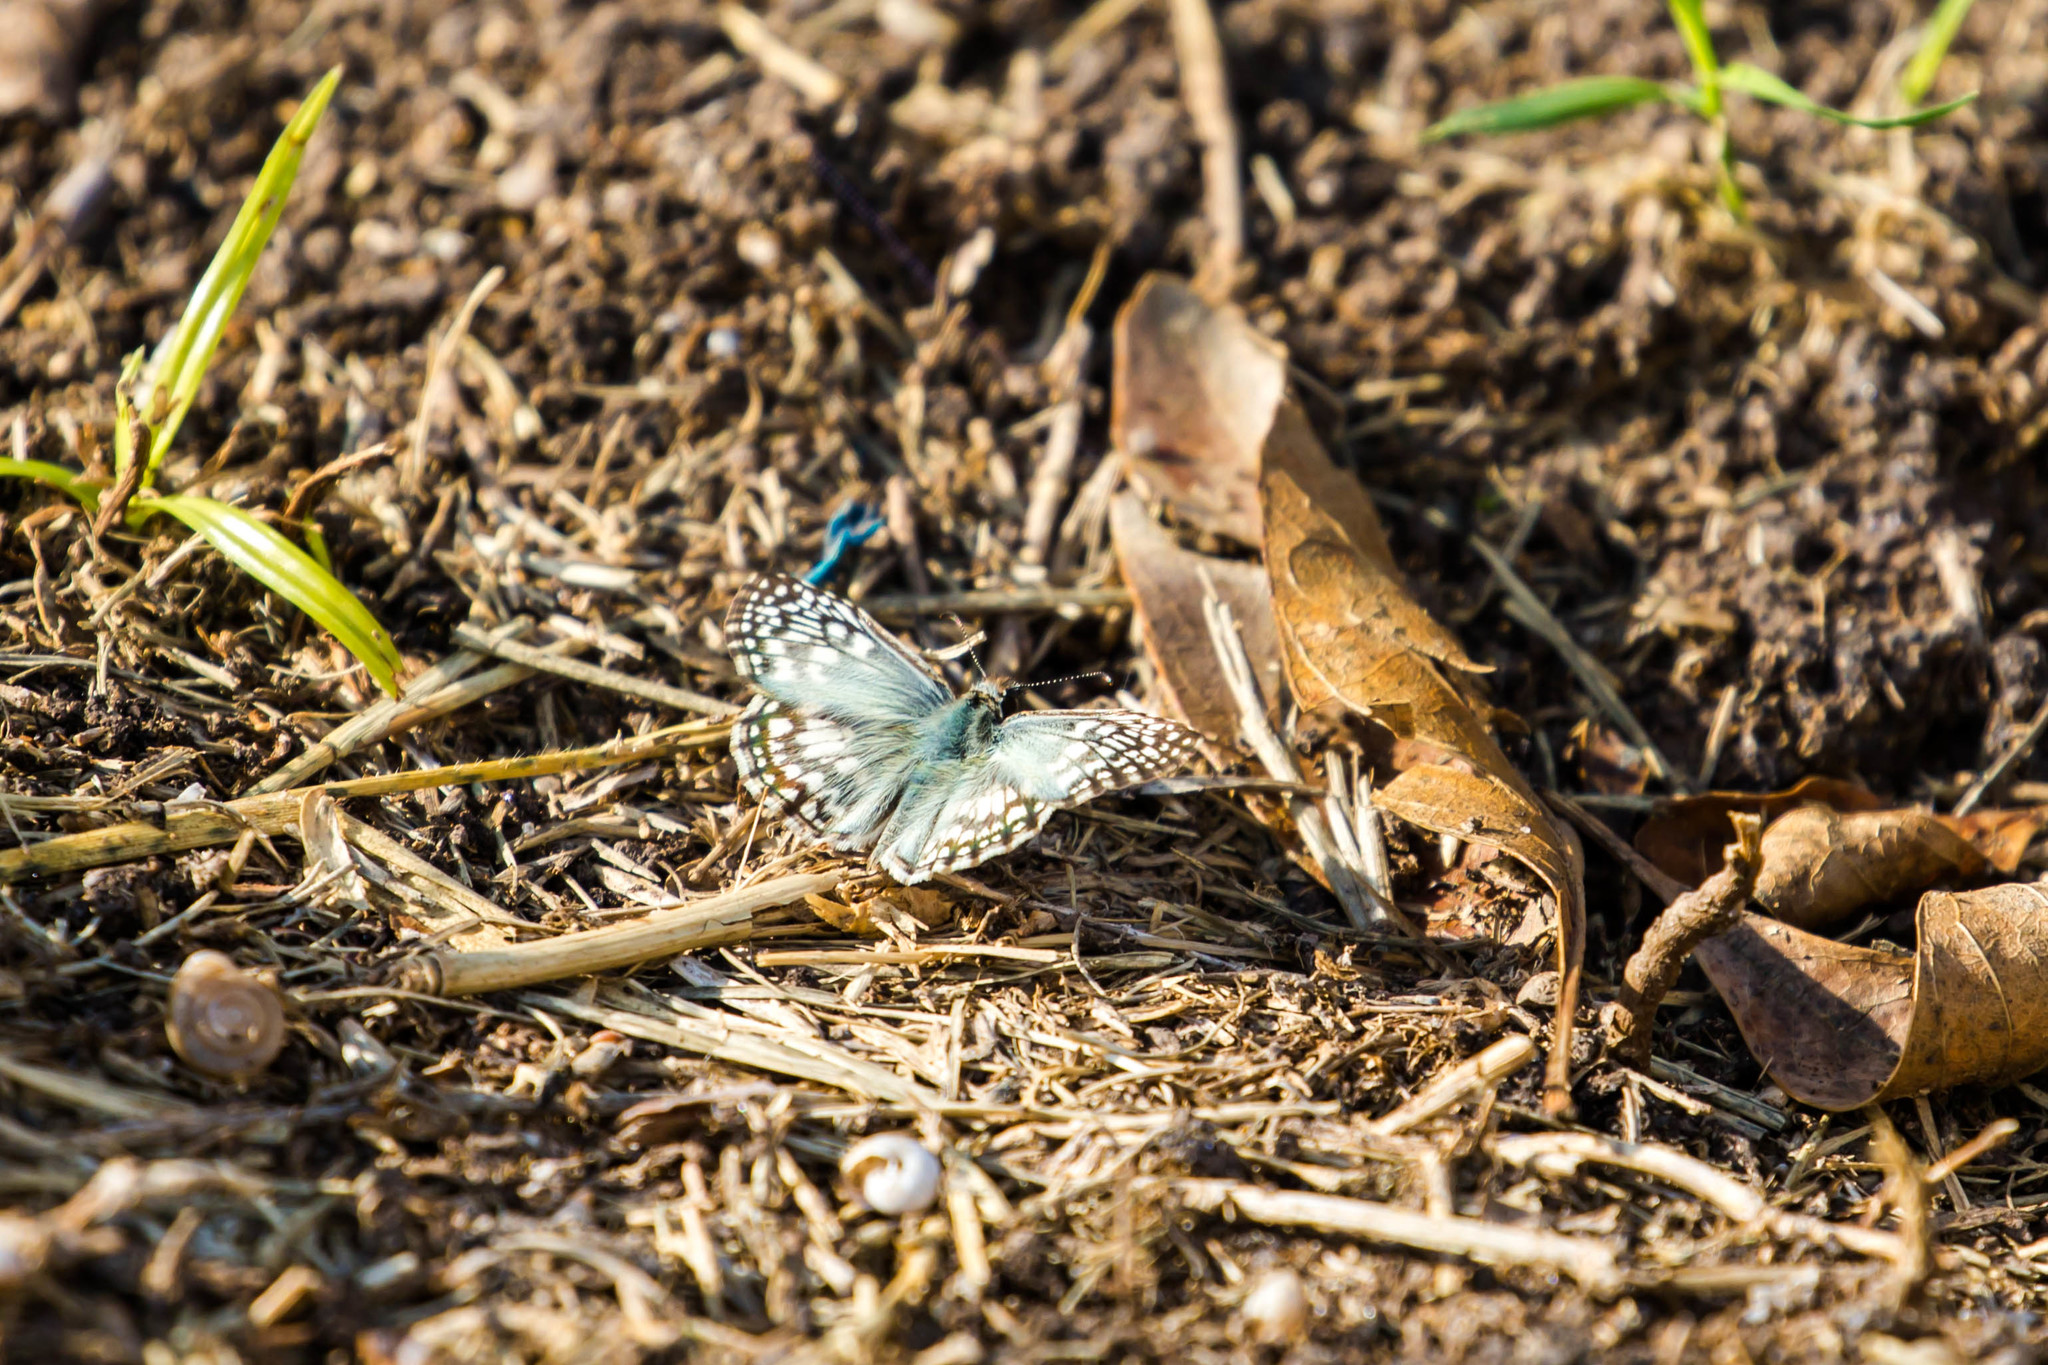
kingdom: Animalia
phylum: Arthropoda
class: Insecta
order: Lepidoptera
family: Hesperiidae
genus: Pyrgus
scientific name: Pyrgus oileus
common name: Tropical checkered-skipper
